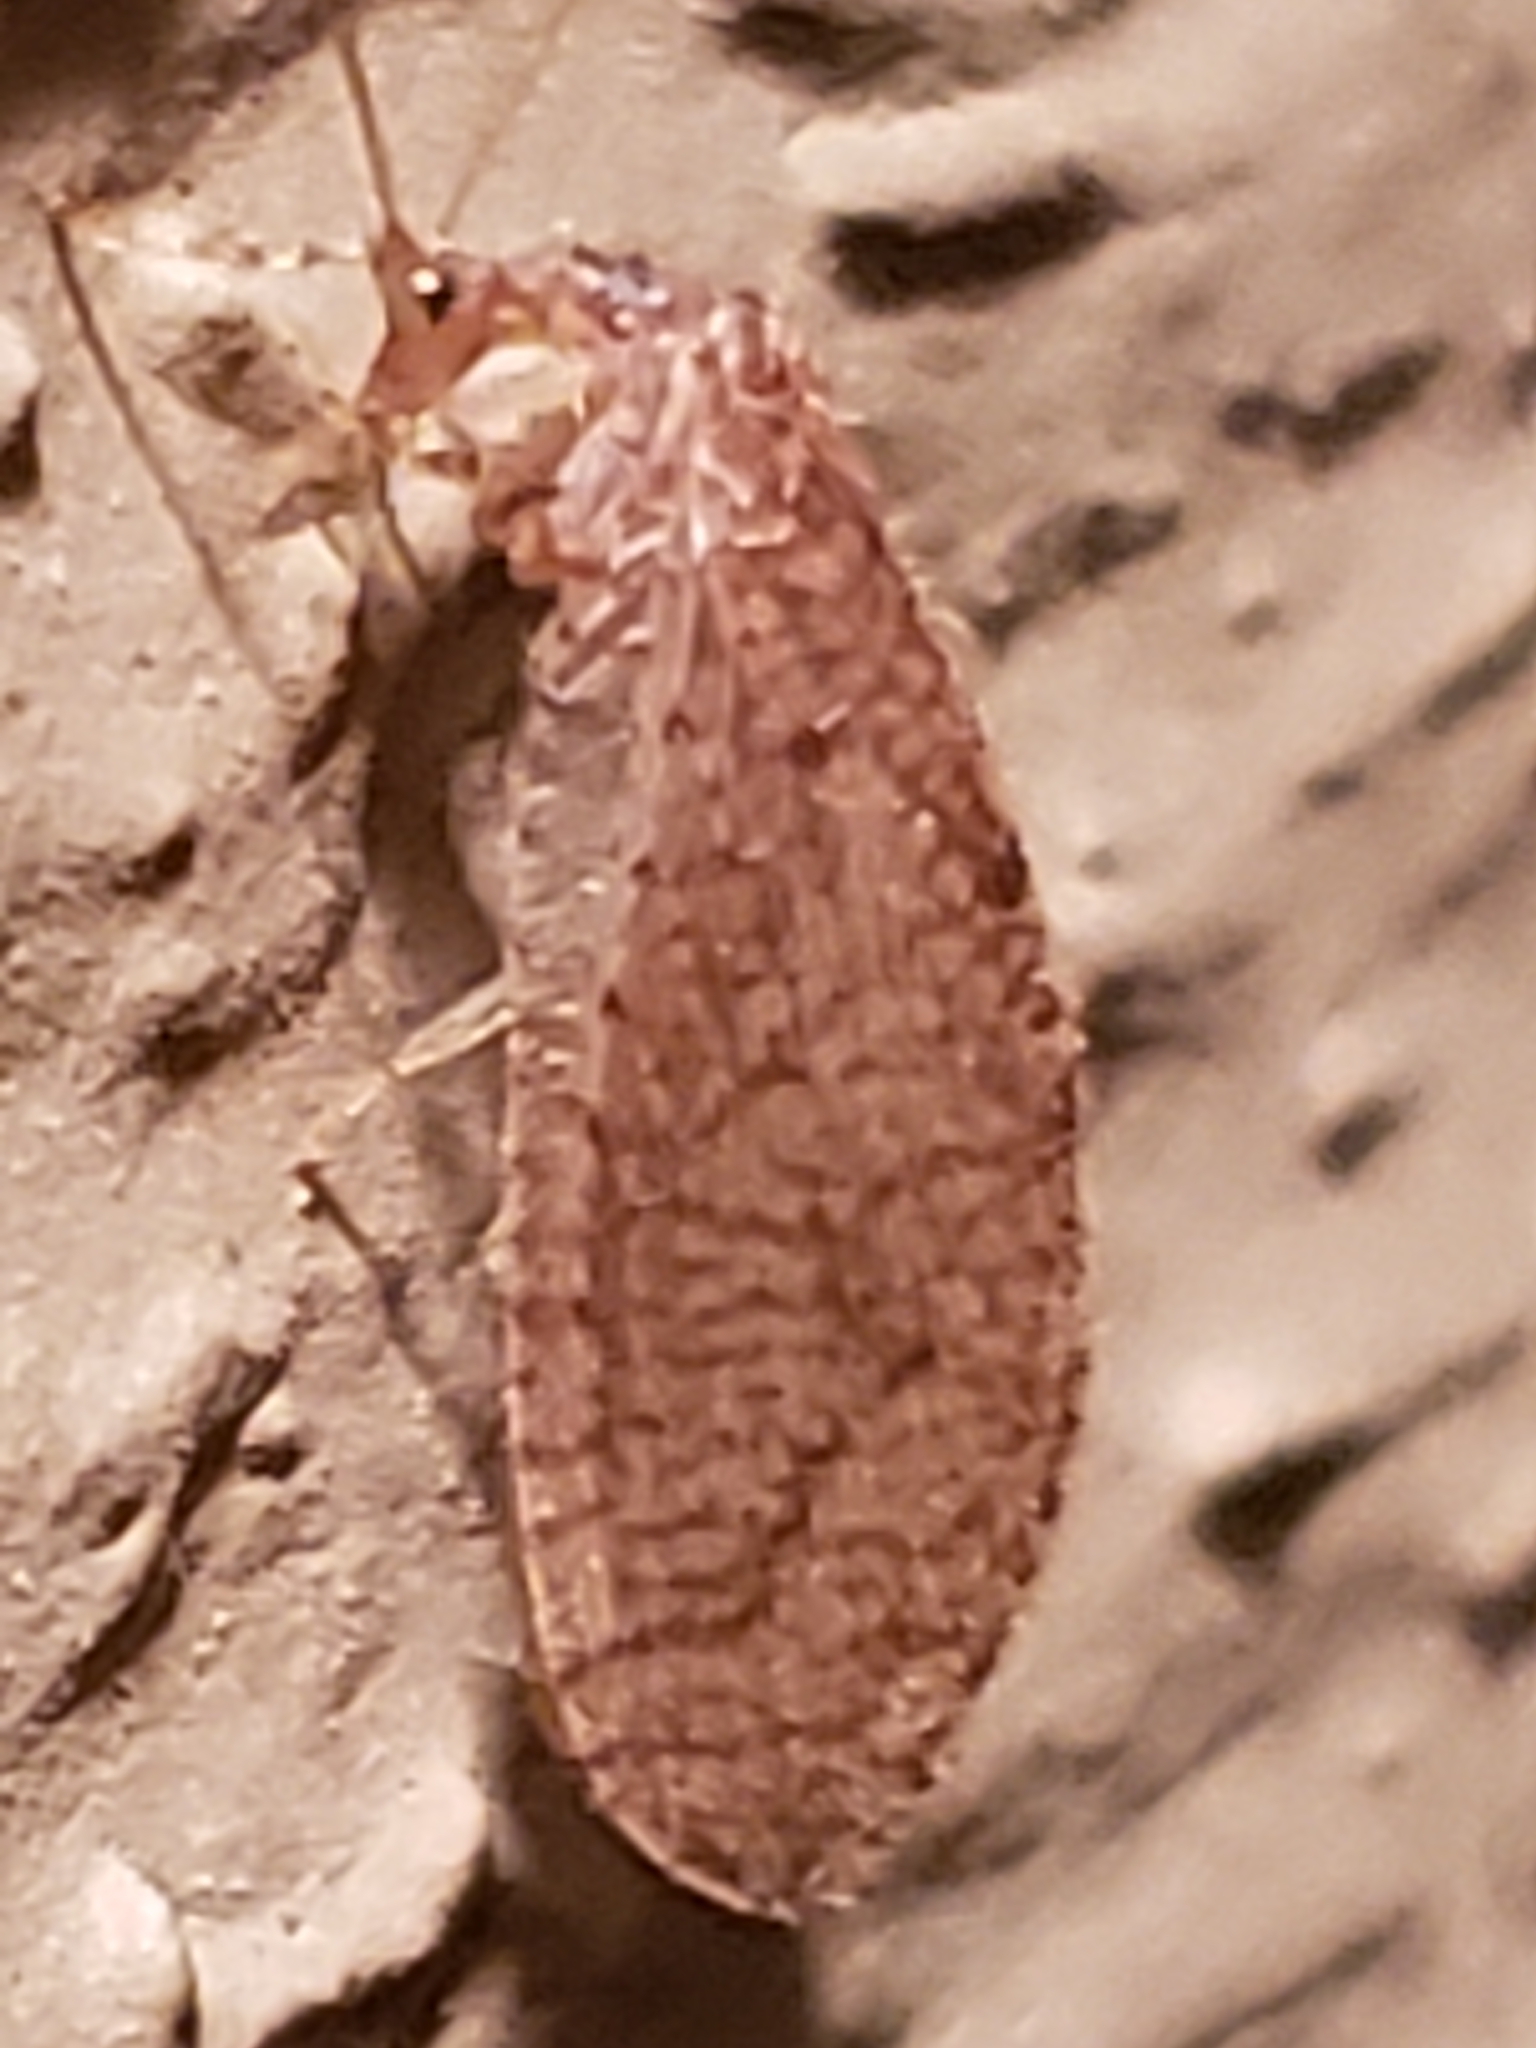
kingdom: Animalia
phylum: Arthropoda
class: Insecta
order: Neuroptera
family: Hemerobiidae
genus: Micromus
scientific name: Micromus posticus
